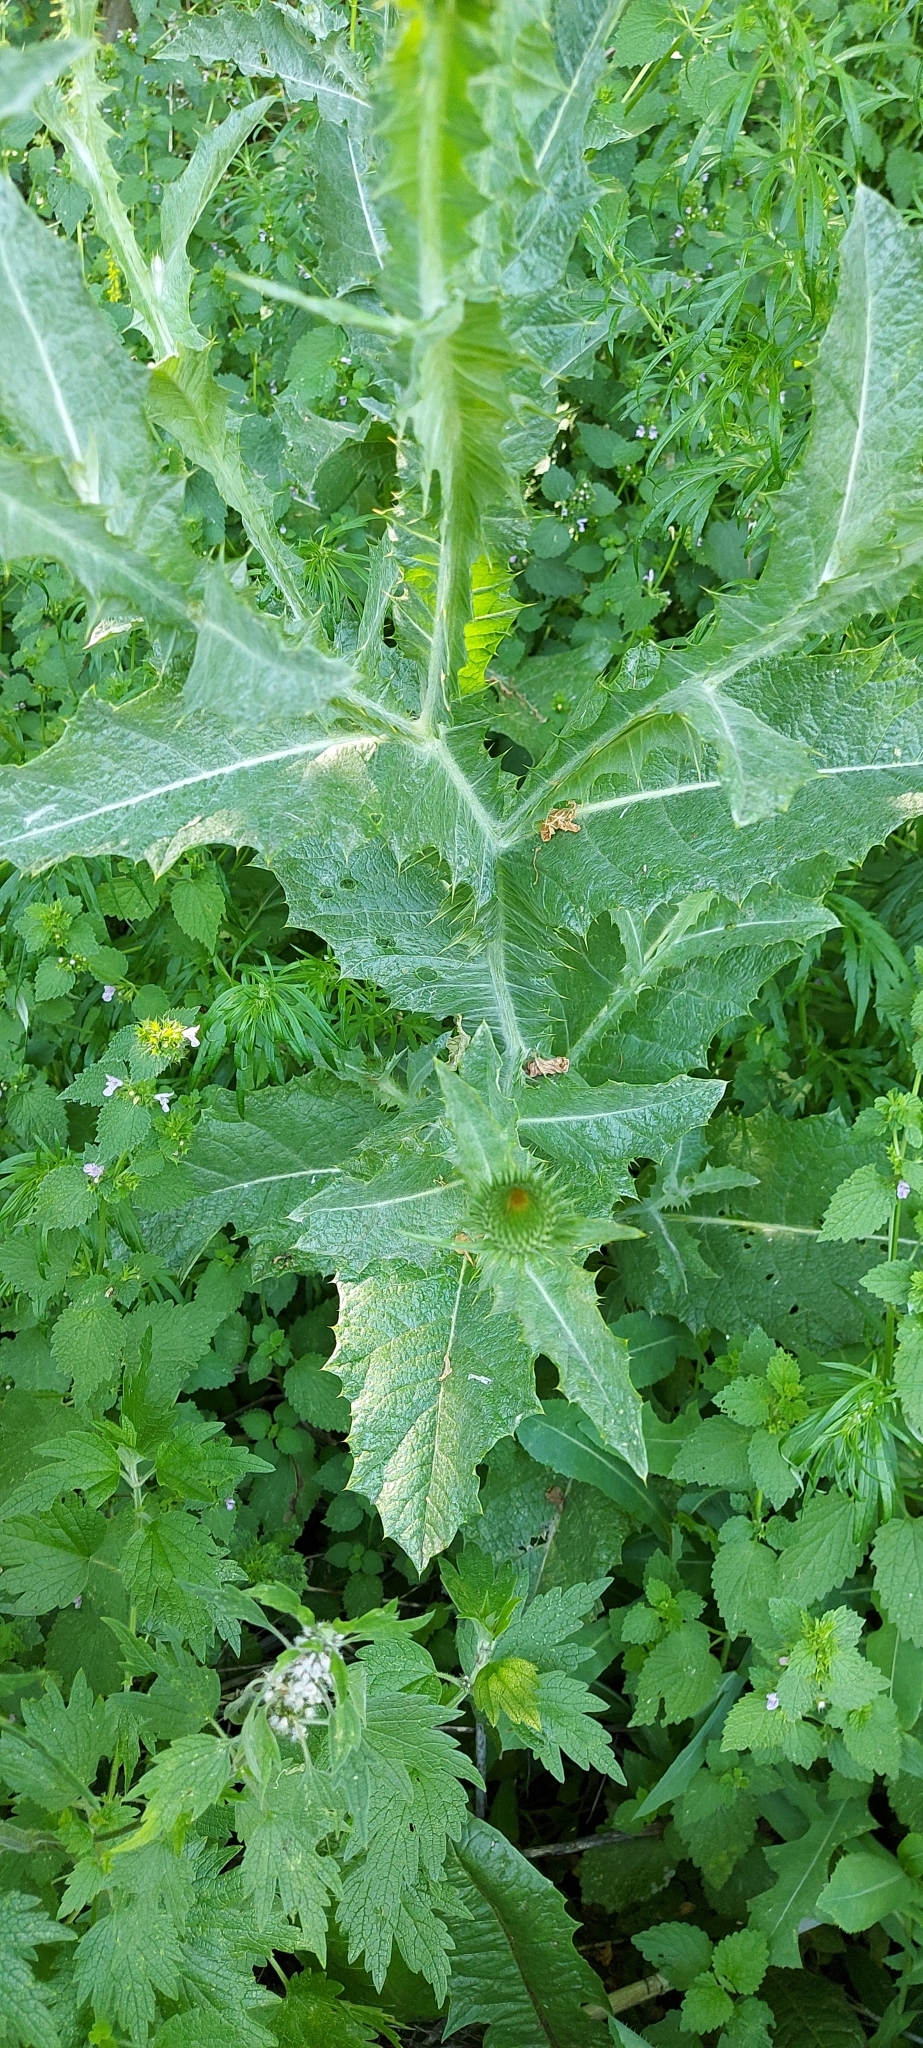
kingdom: Plantae
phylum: Tracheophyta
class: Magnoliopsida
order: Asterales
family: Asteraceae
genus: Onopordum
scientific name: Onopordum acanthium
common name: Scotch thistle
